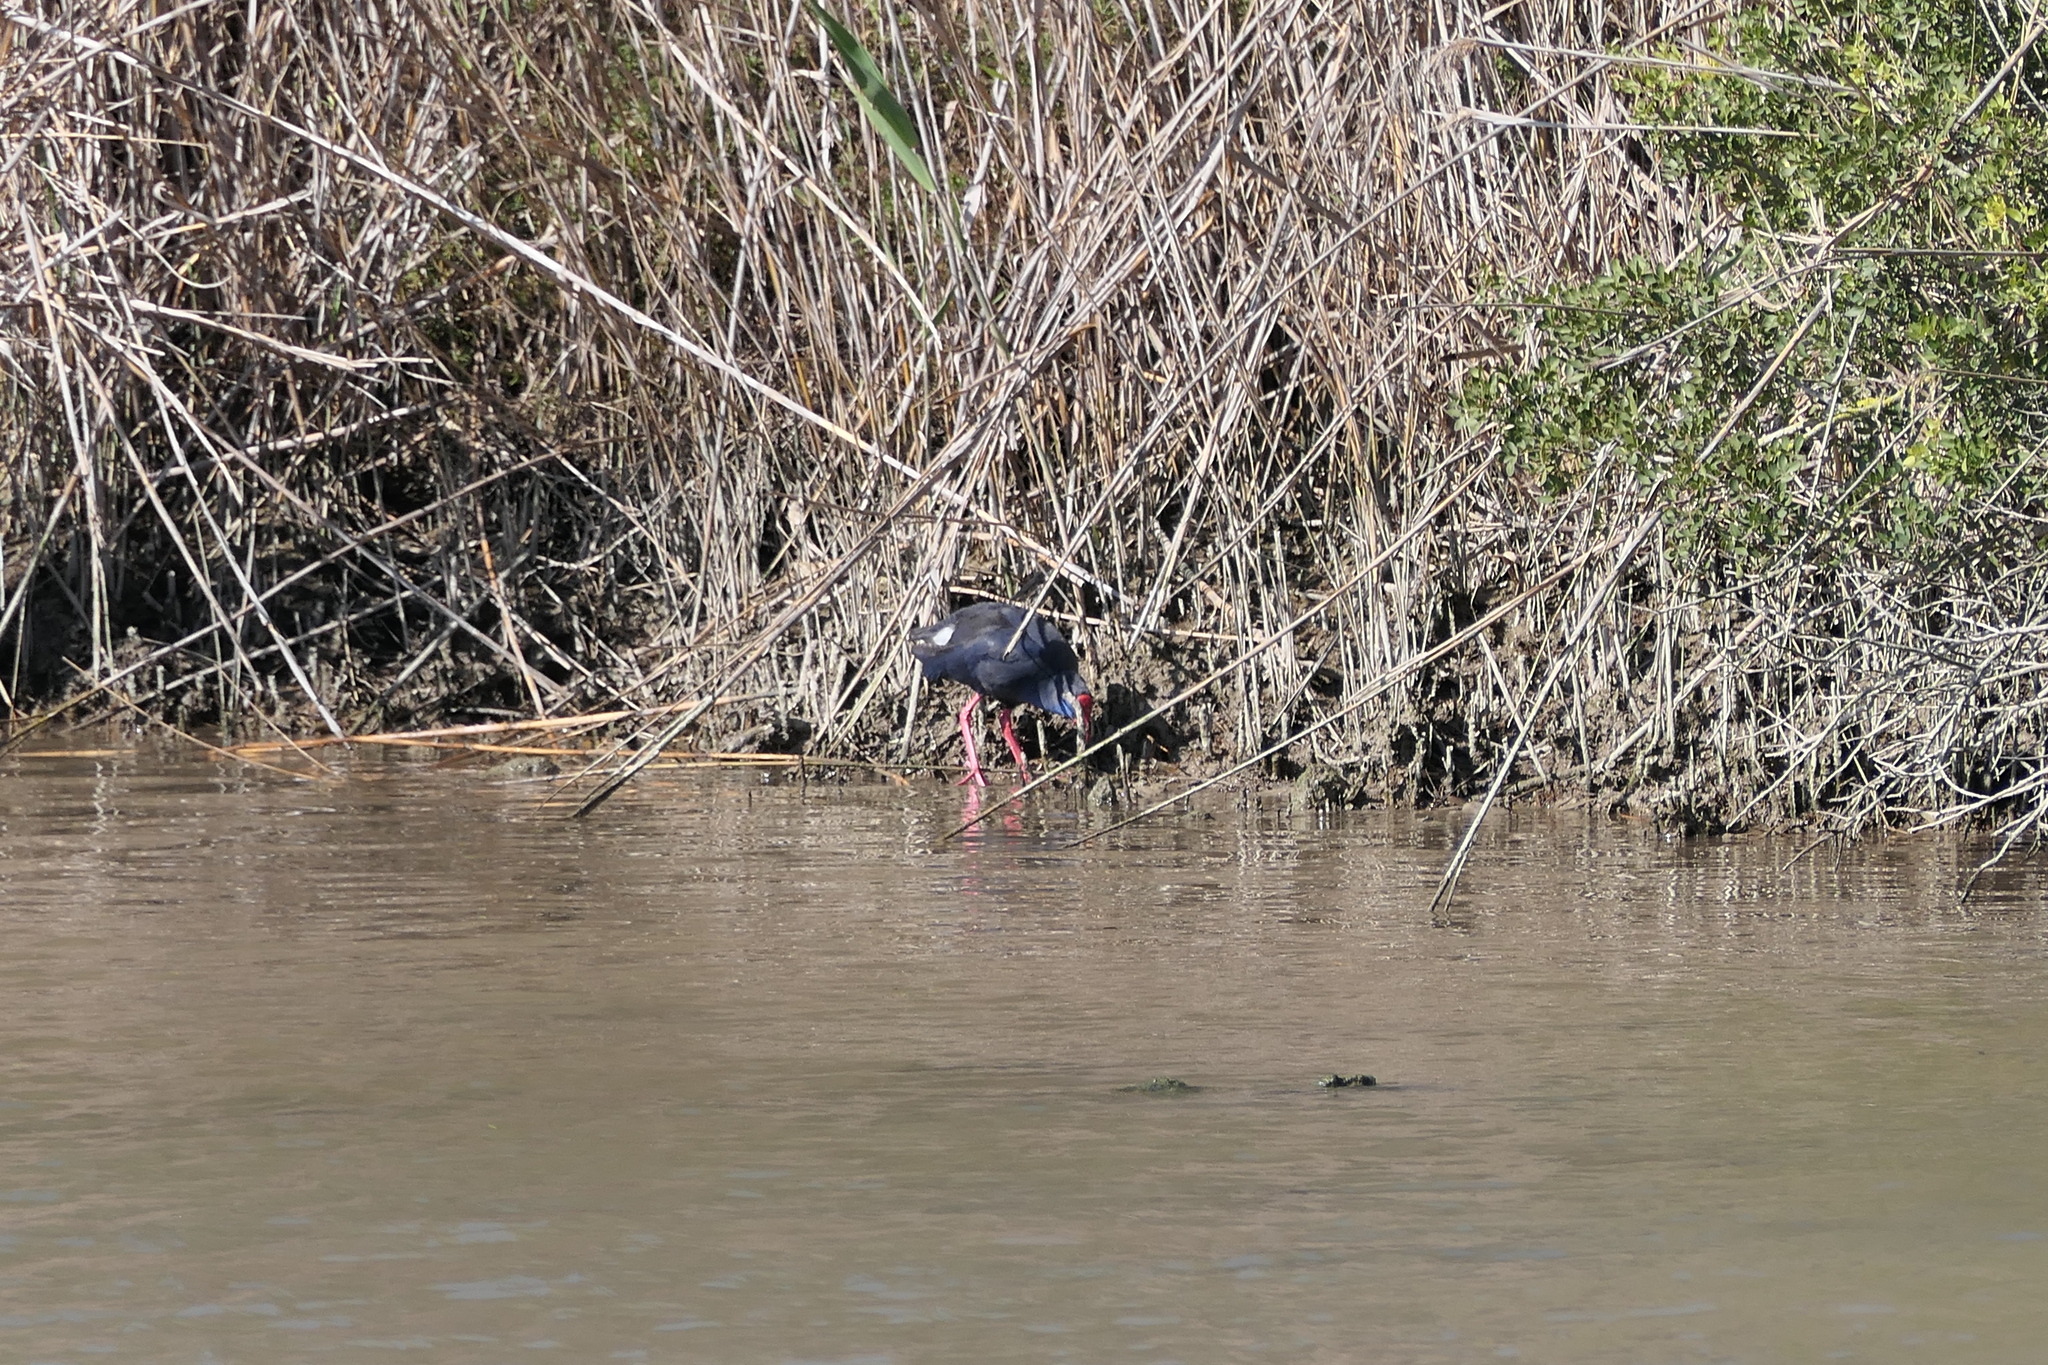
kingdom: Animalia
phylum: Chordata
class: Aves
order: Gruiformes
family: Rallidae
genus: Porphyrio
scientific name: Porphyrio porphyrio
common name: Purple swamphen
